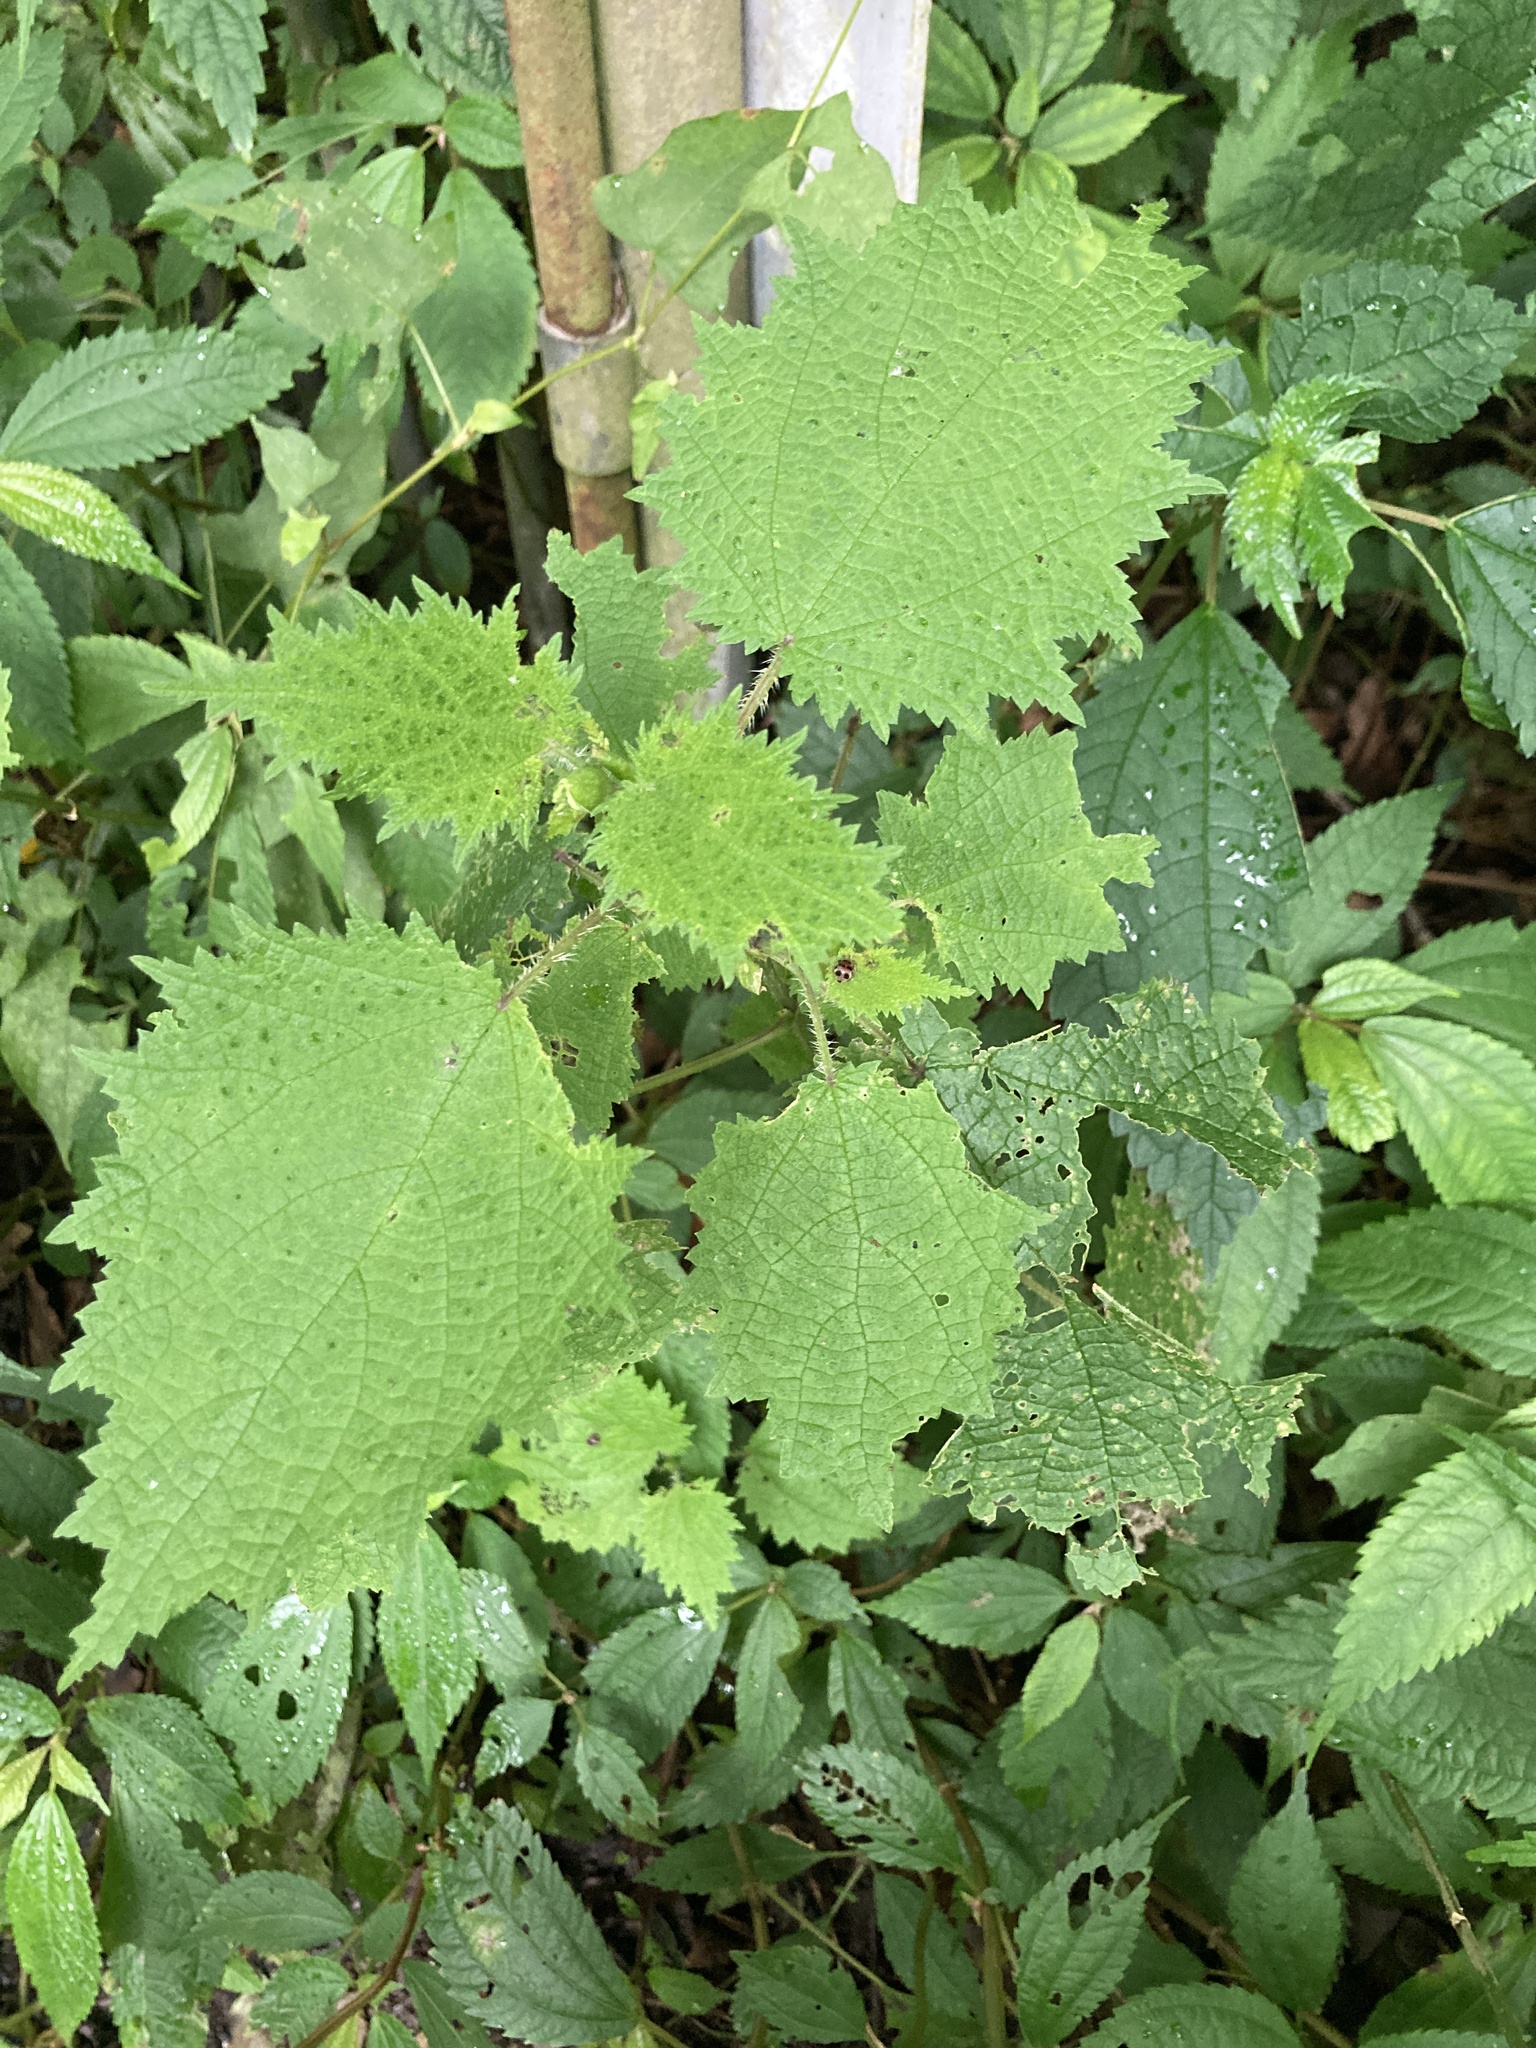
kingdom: Plantae
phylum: Tracheophyta
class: Magnoliopsida
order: Rosales
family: Urticaceae
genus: Urtica
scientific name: Urtica thunbergiana
